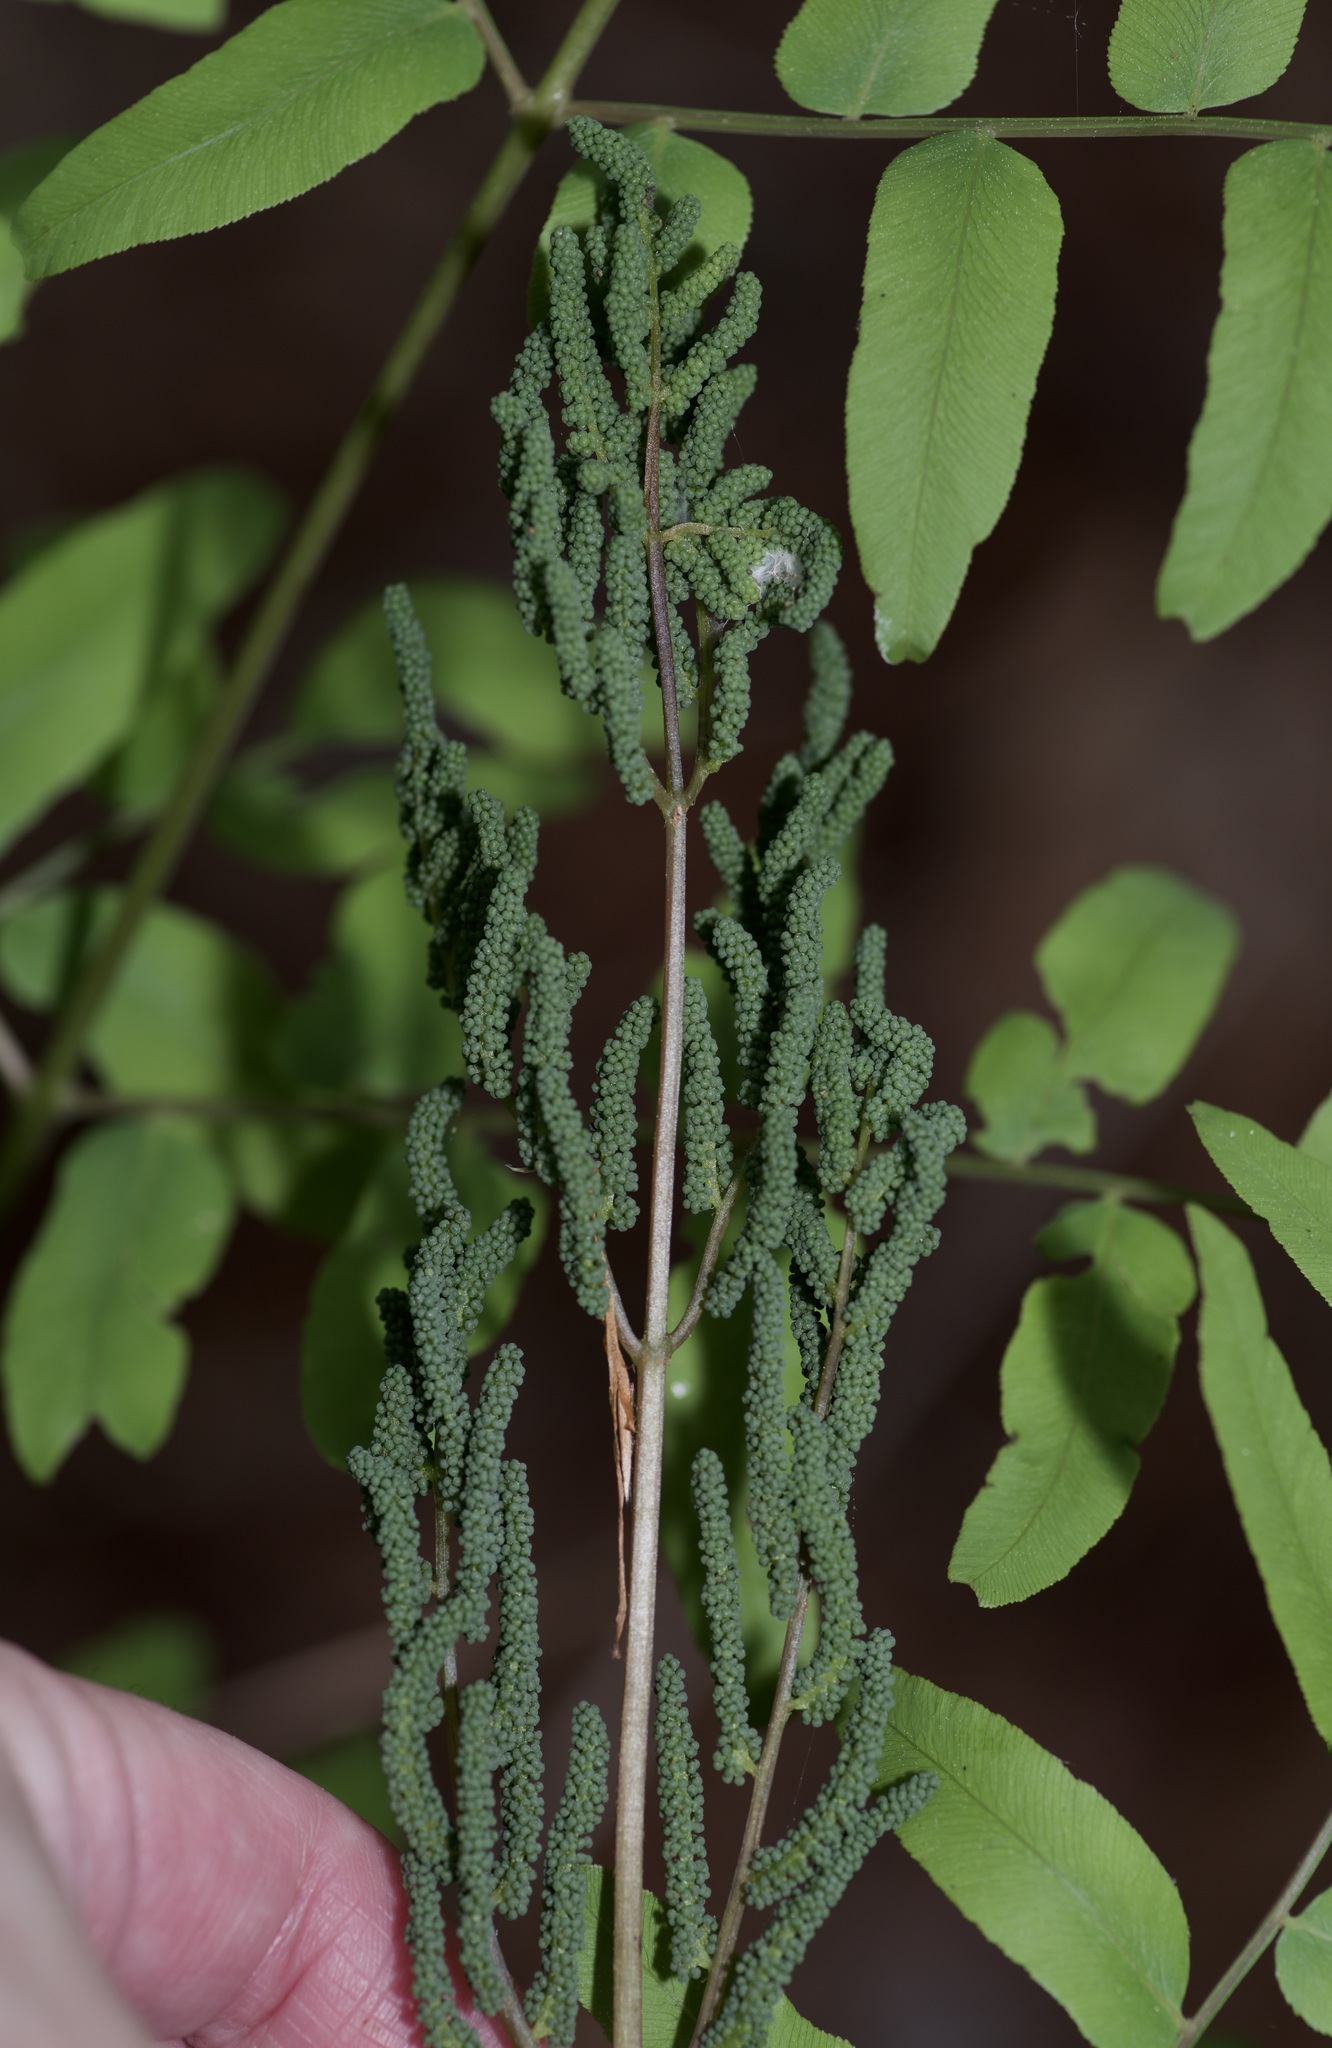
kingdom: Plantae
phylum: Tracheophyta
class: Polypodiopsida
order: Osmundales
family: Osmundaceae
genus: Osmunda
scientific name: Osmunda spectabilis
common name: American royal fern
